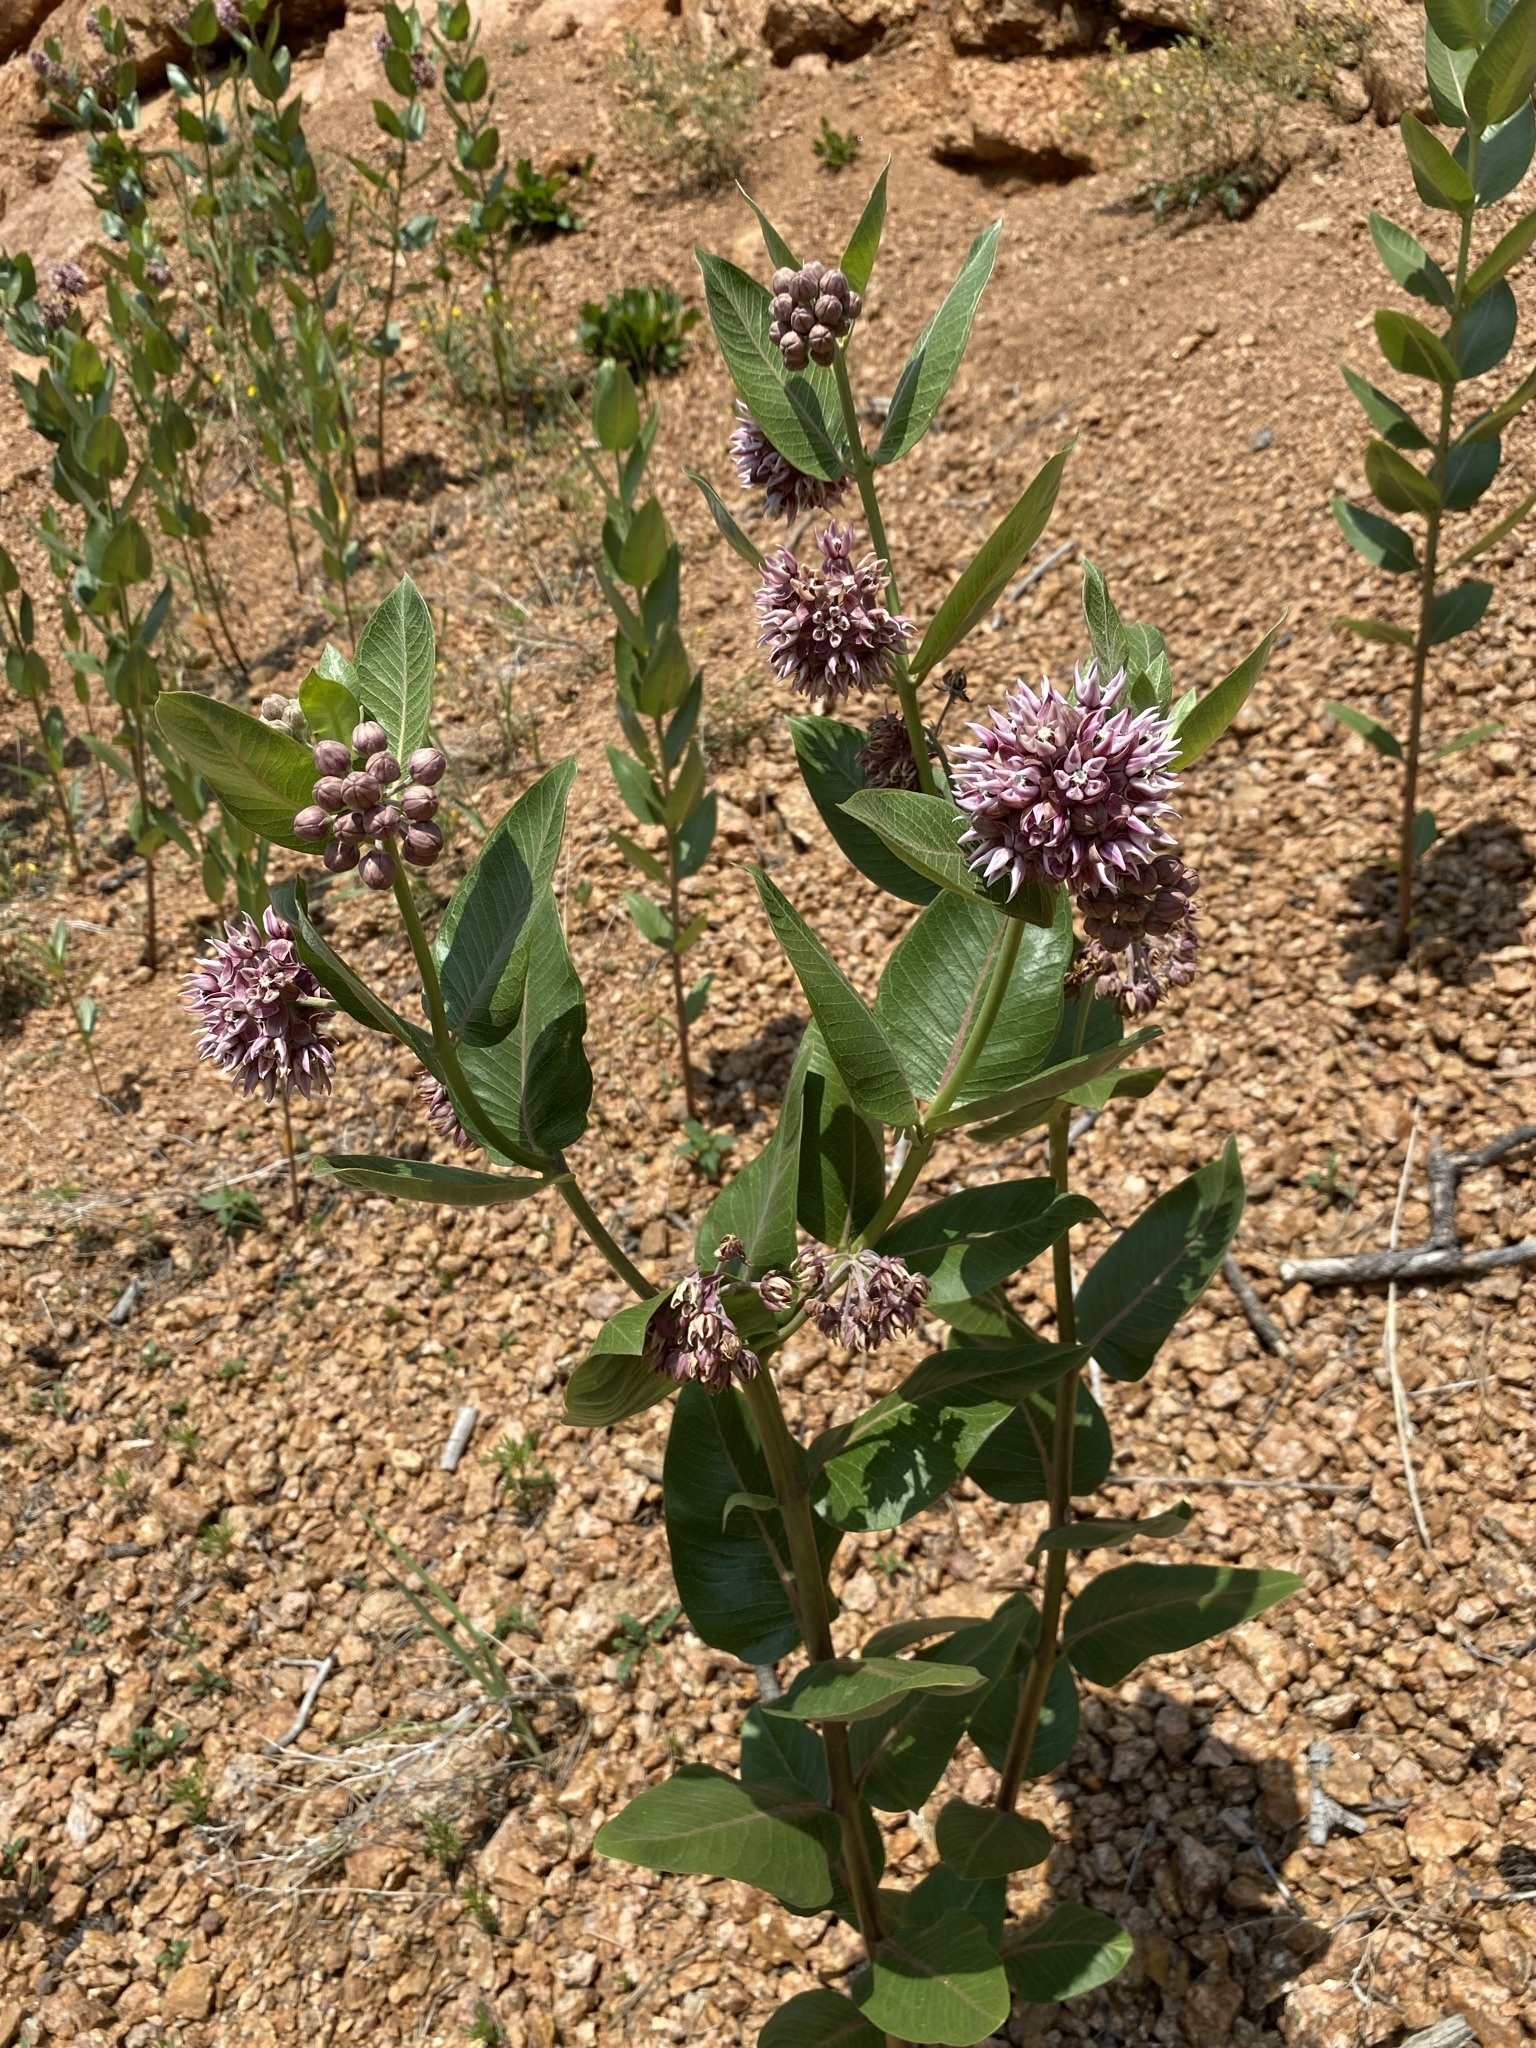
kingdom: Plantae
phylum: Tracheophyta
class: Magnoliopsida
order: Gentianales
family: Apocynaceae
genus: Asclepias
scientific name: Asclepias speciosa
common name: Showy milkweed
